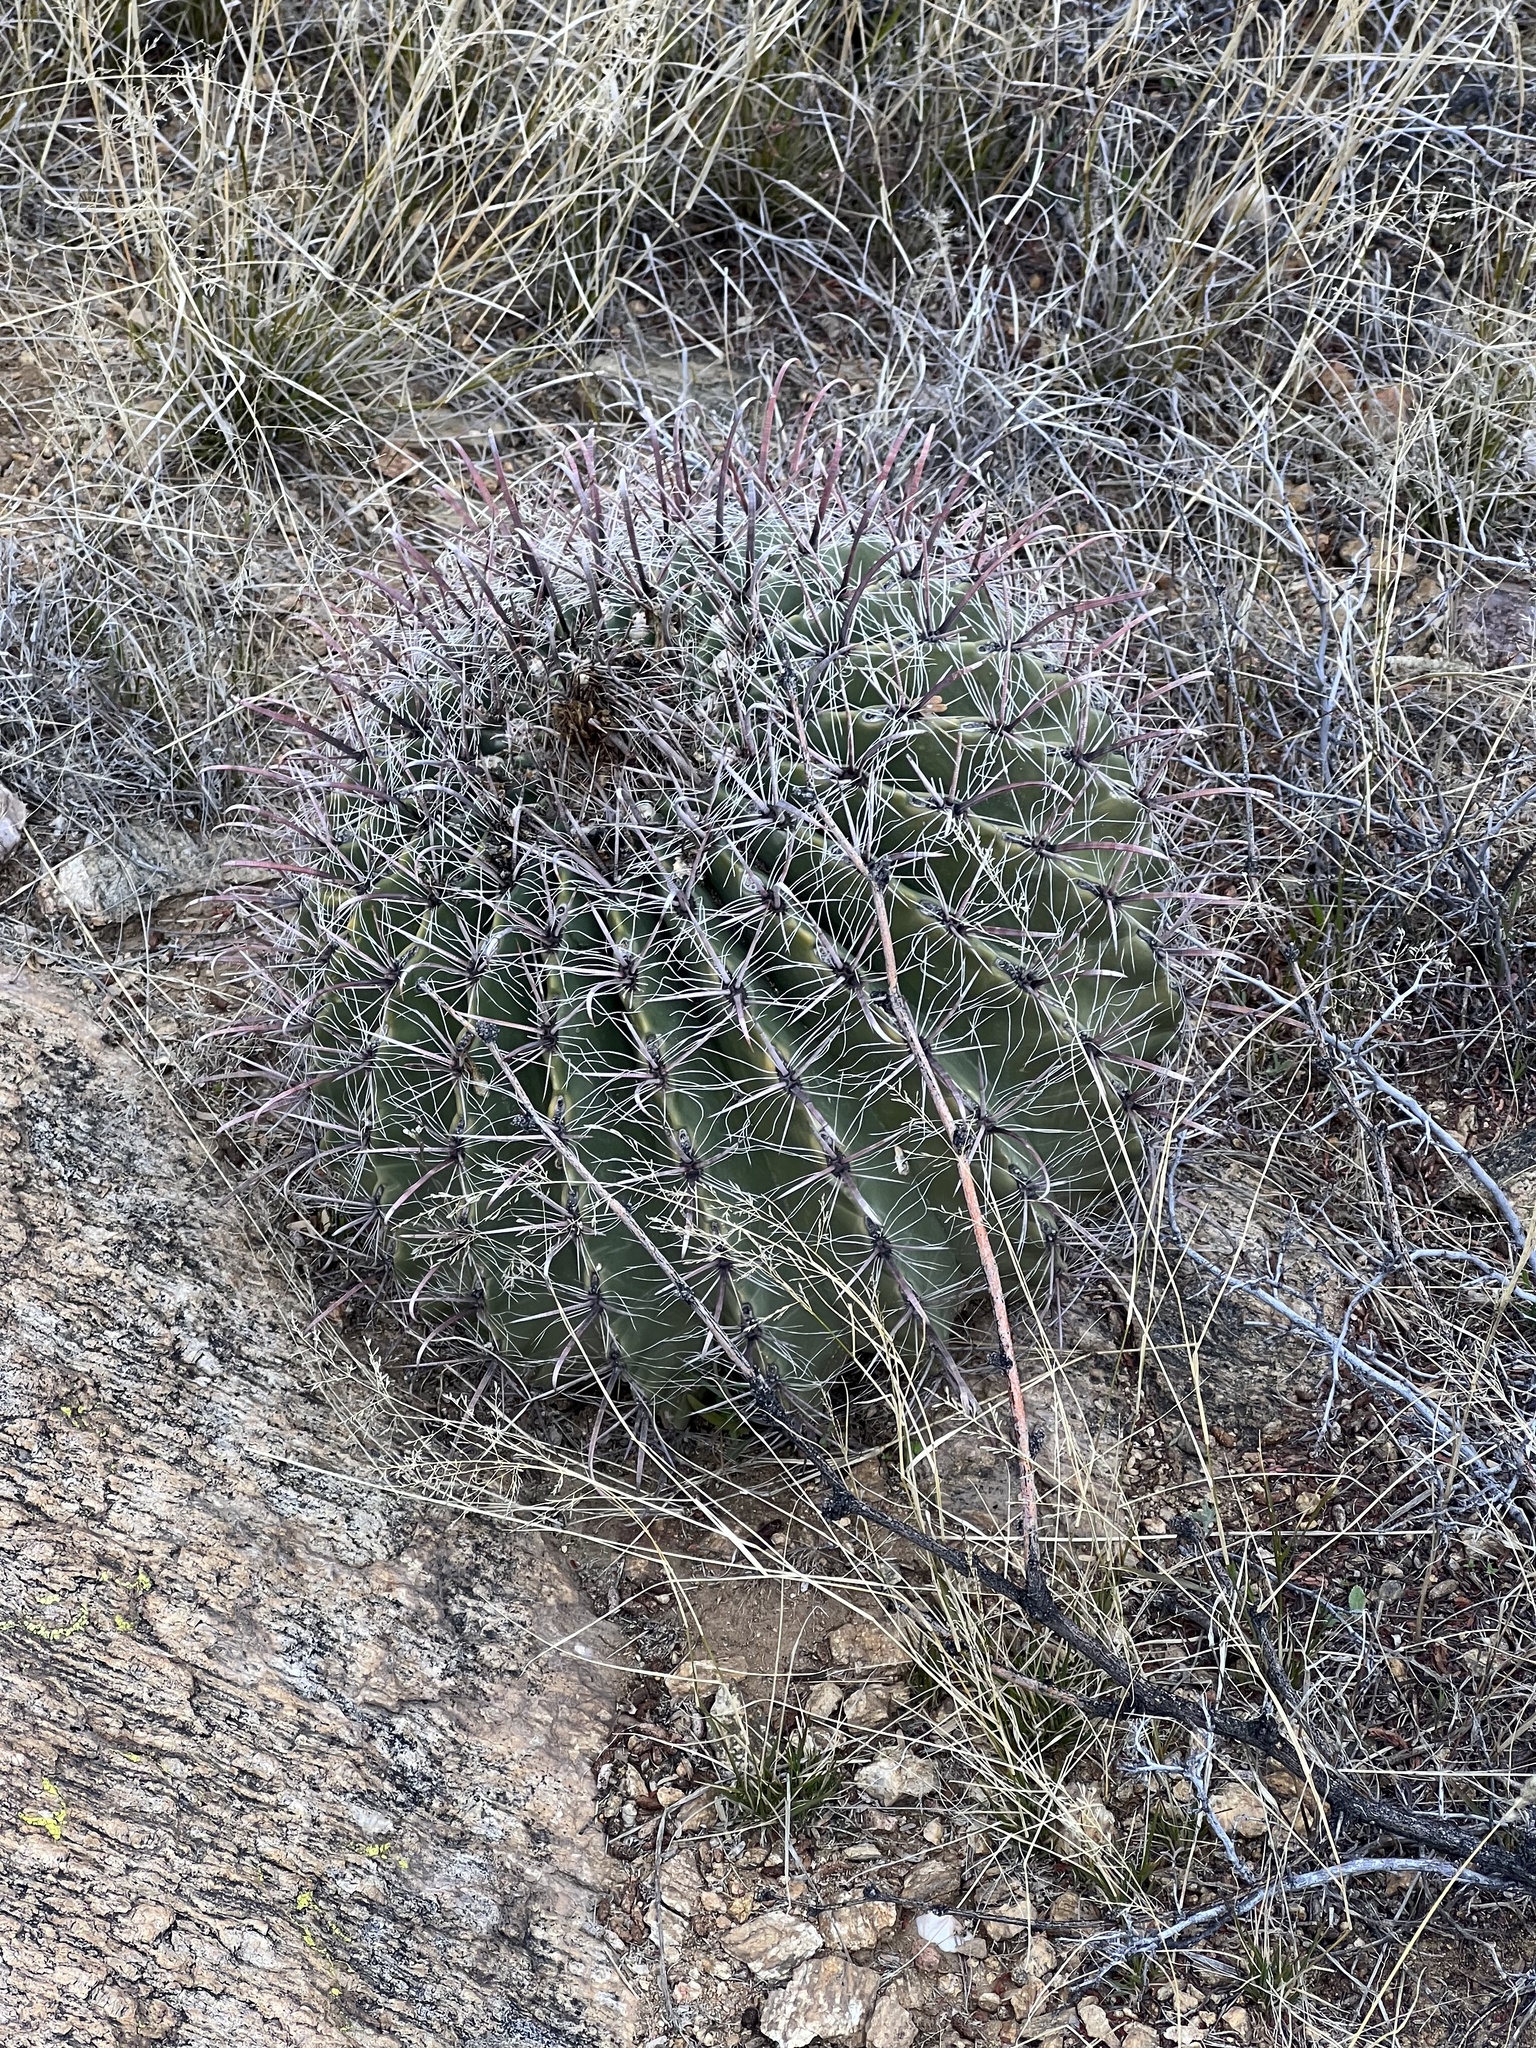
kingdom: Plantae
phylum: Tracheophyta
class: Magnoliopsida
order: Caryophyllales
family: Cactaceae
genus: Ferocactus
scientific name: Ferocactus wislizeni
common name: Candy barrel cactus
